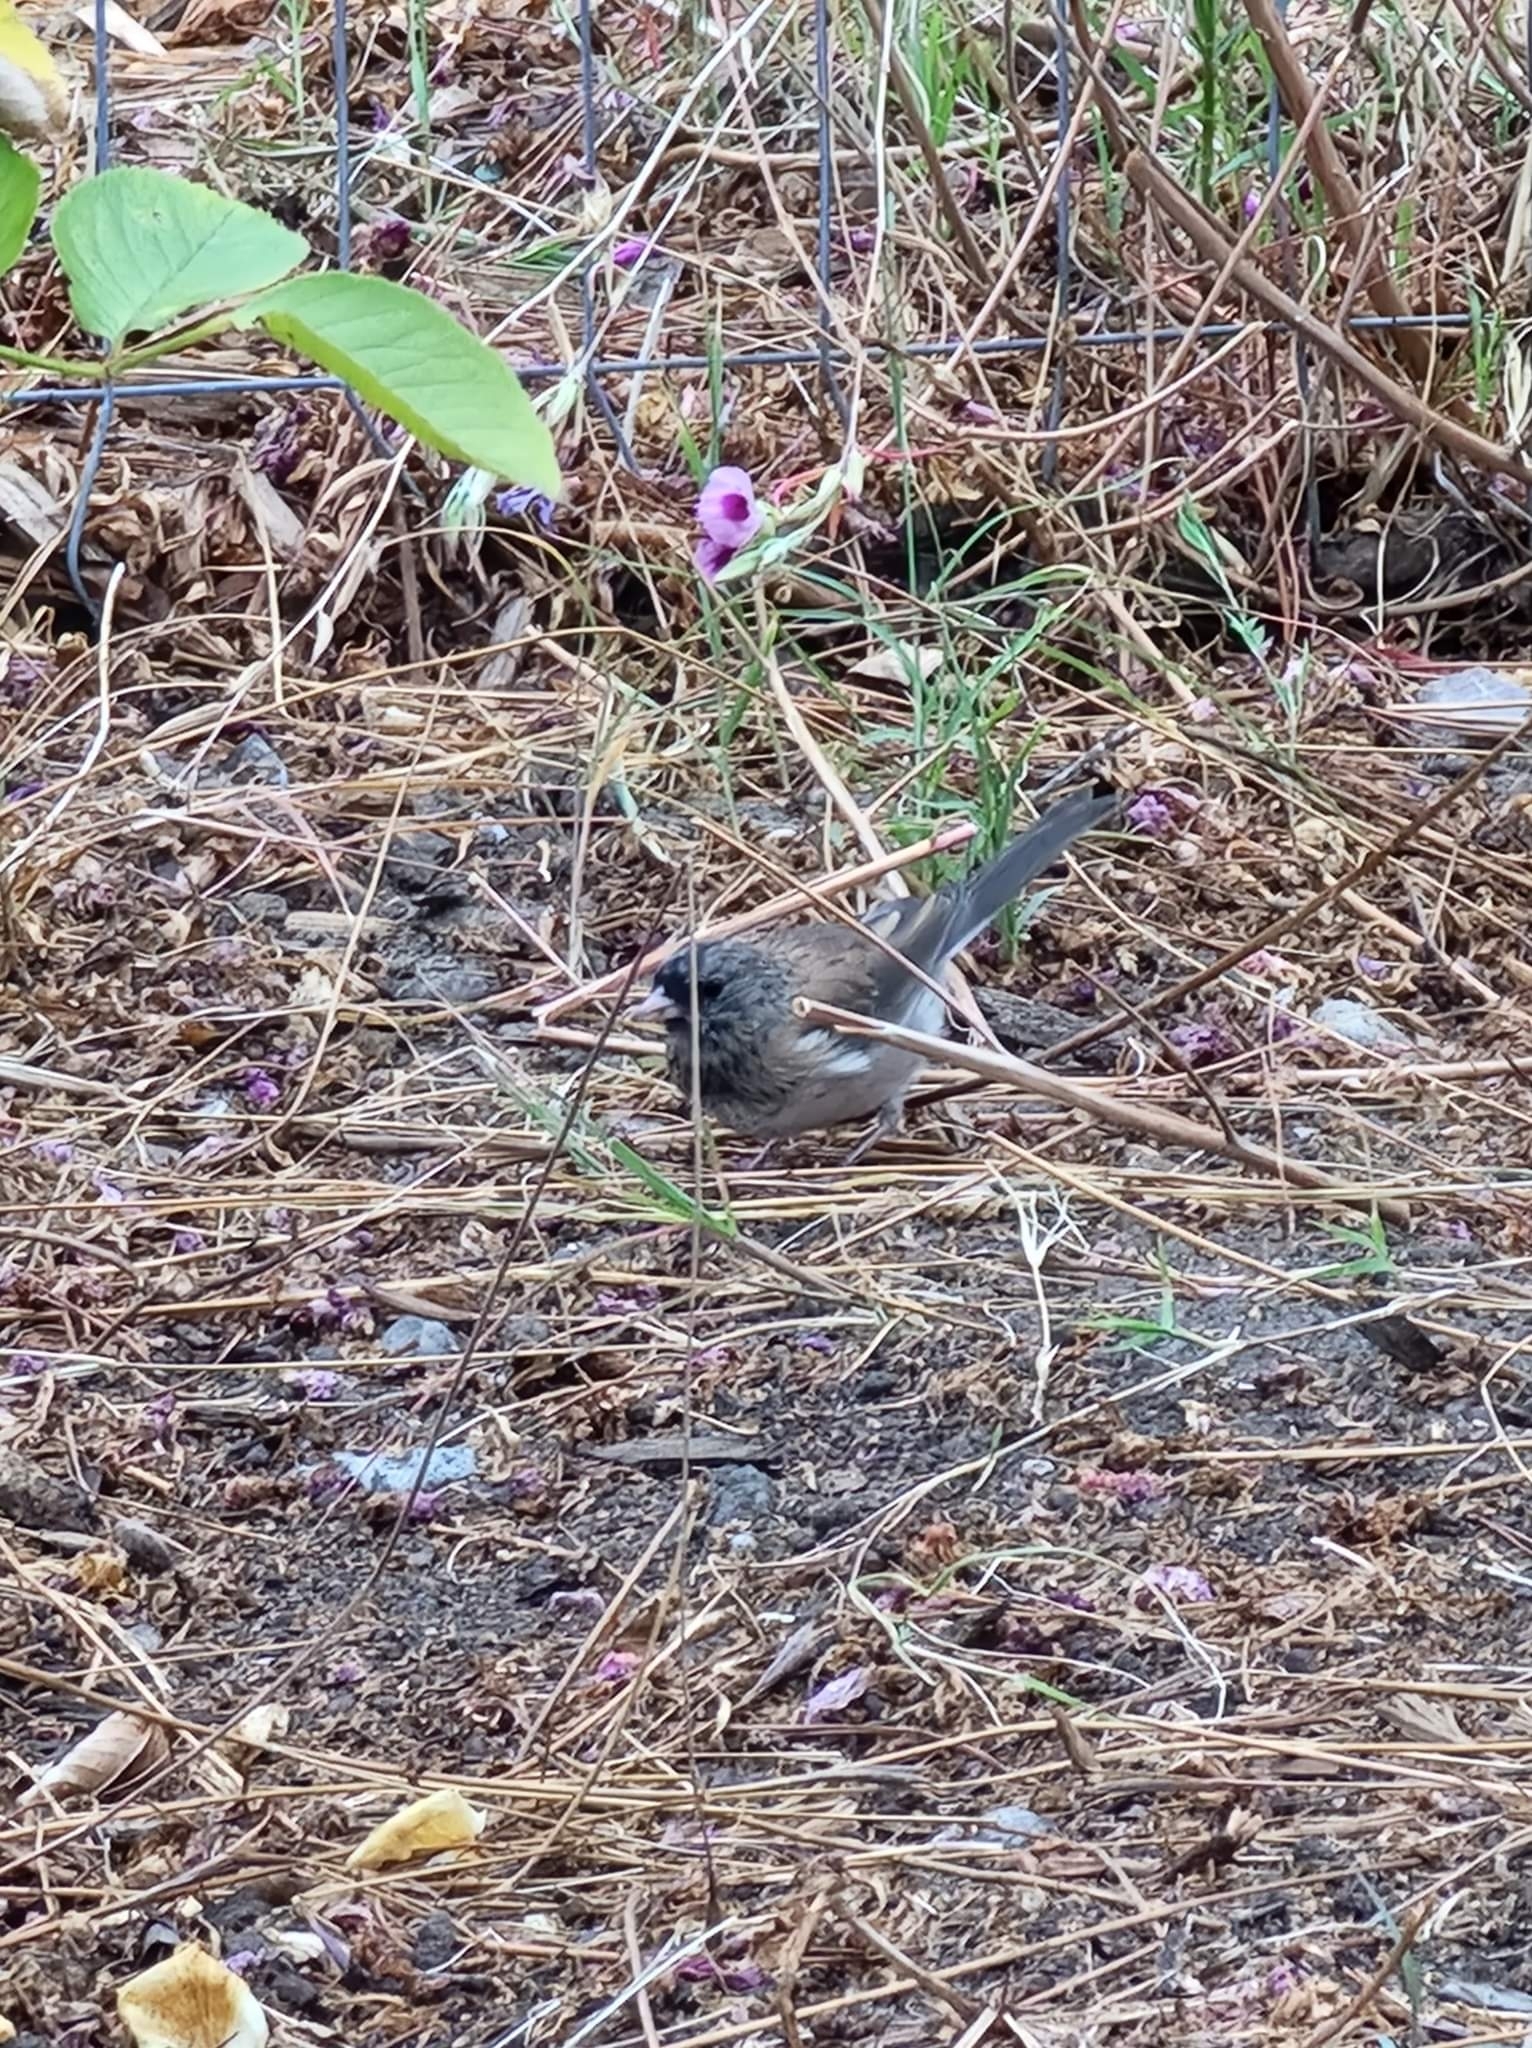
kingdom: Animalia
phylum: Chordata
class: Aves
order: Passeriformes
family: Passerellidae
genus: Junco
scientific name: Junco hyemalis
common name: Dark-eyed junco
